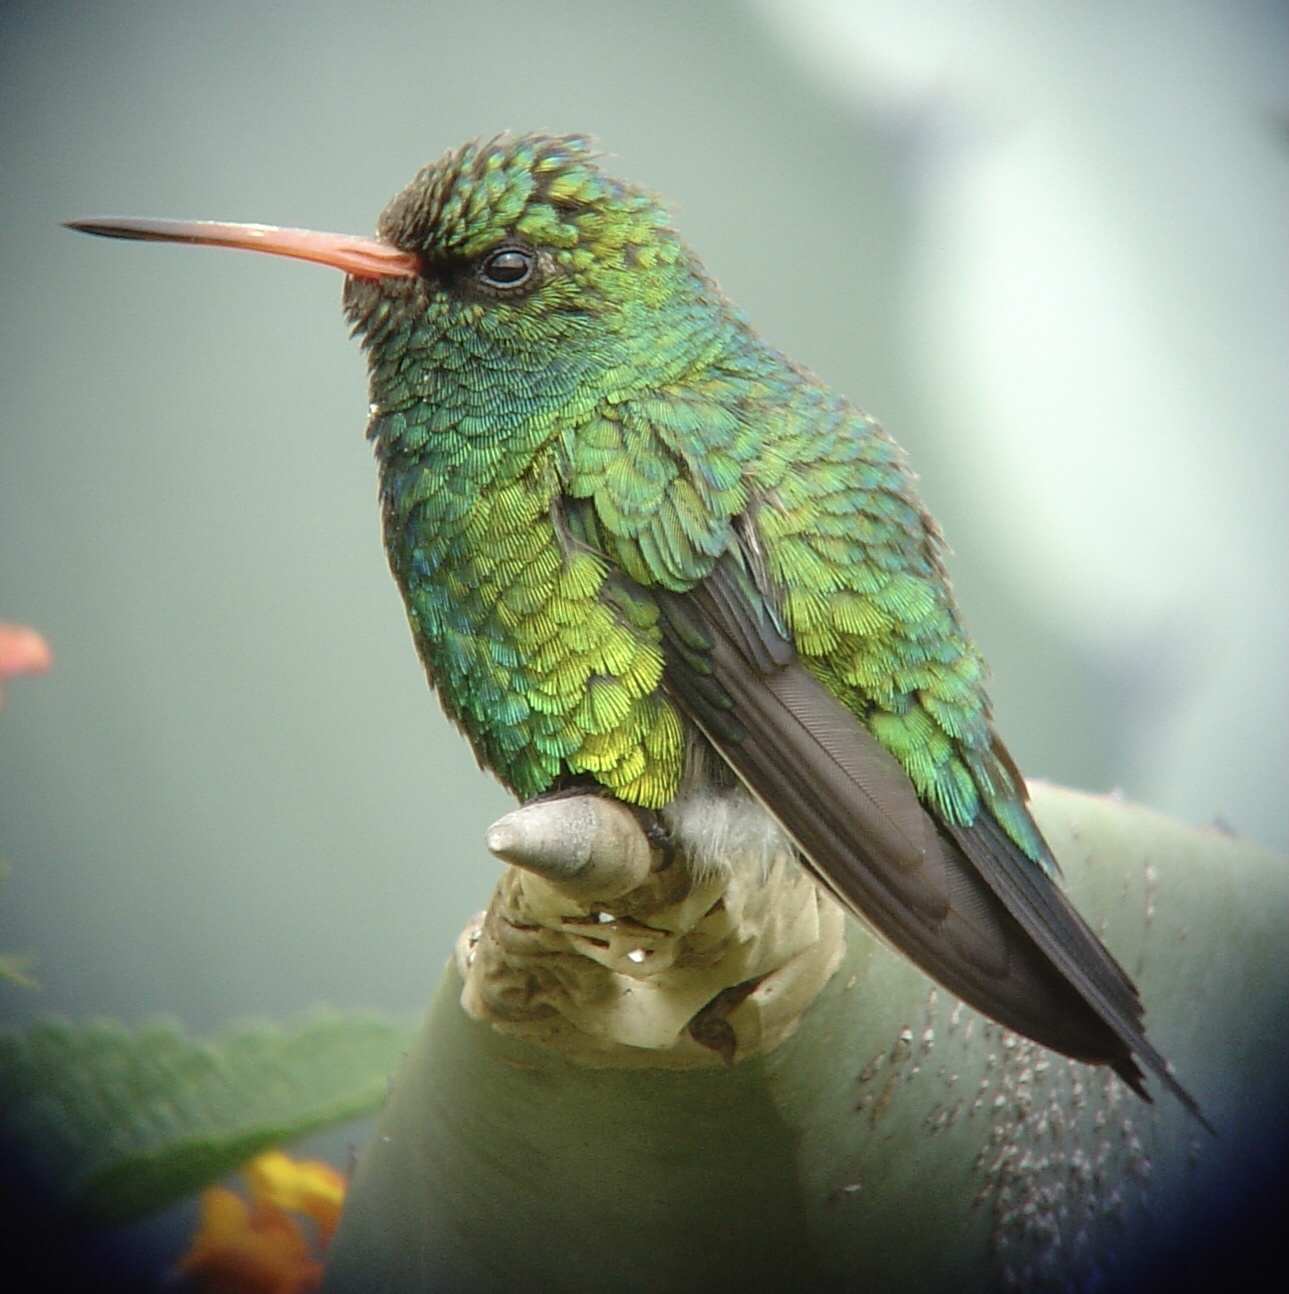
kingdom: Animalia
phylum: Chordata
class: Aves
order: Apodiformes
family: Trochilidae
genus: Chlorostilbon
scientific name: Chlorostilbon lucidus
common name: Glittering-bellied emerald
